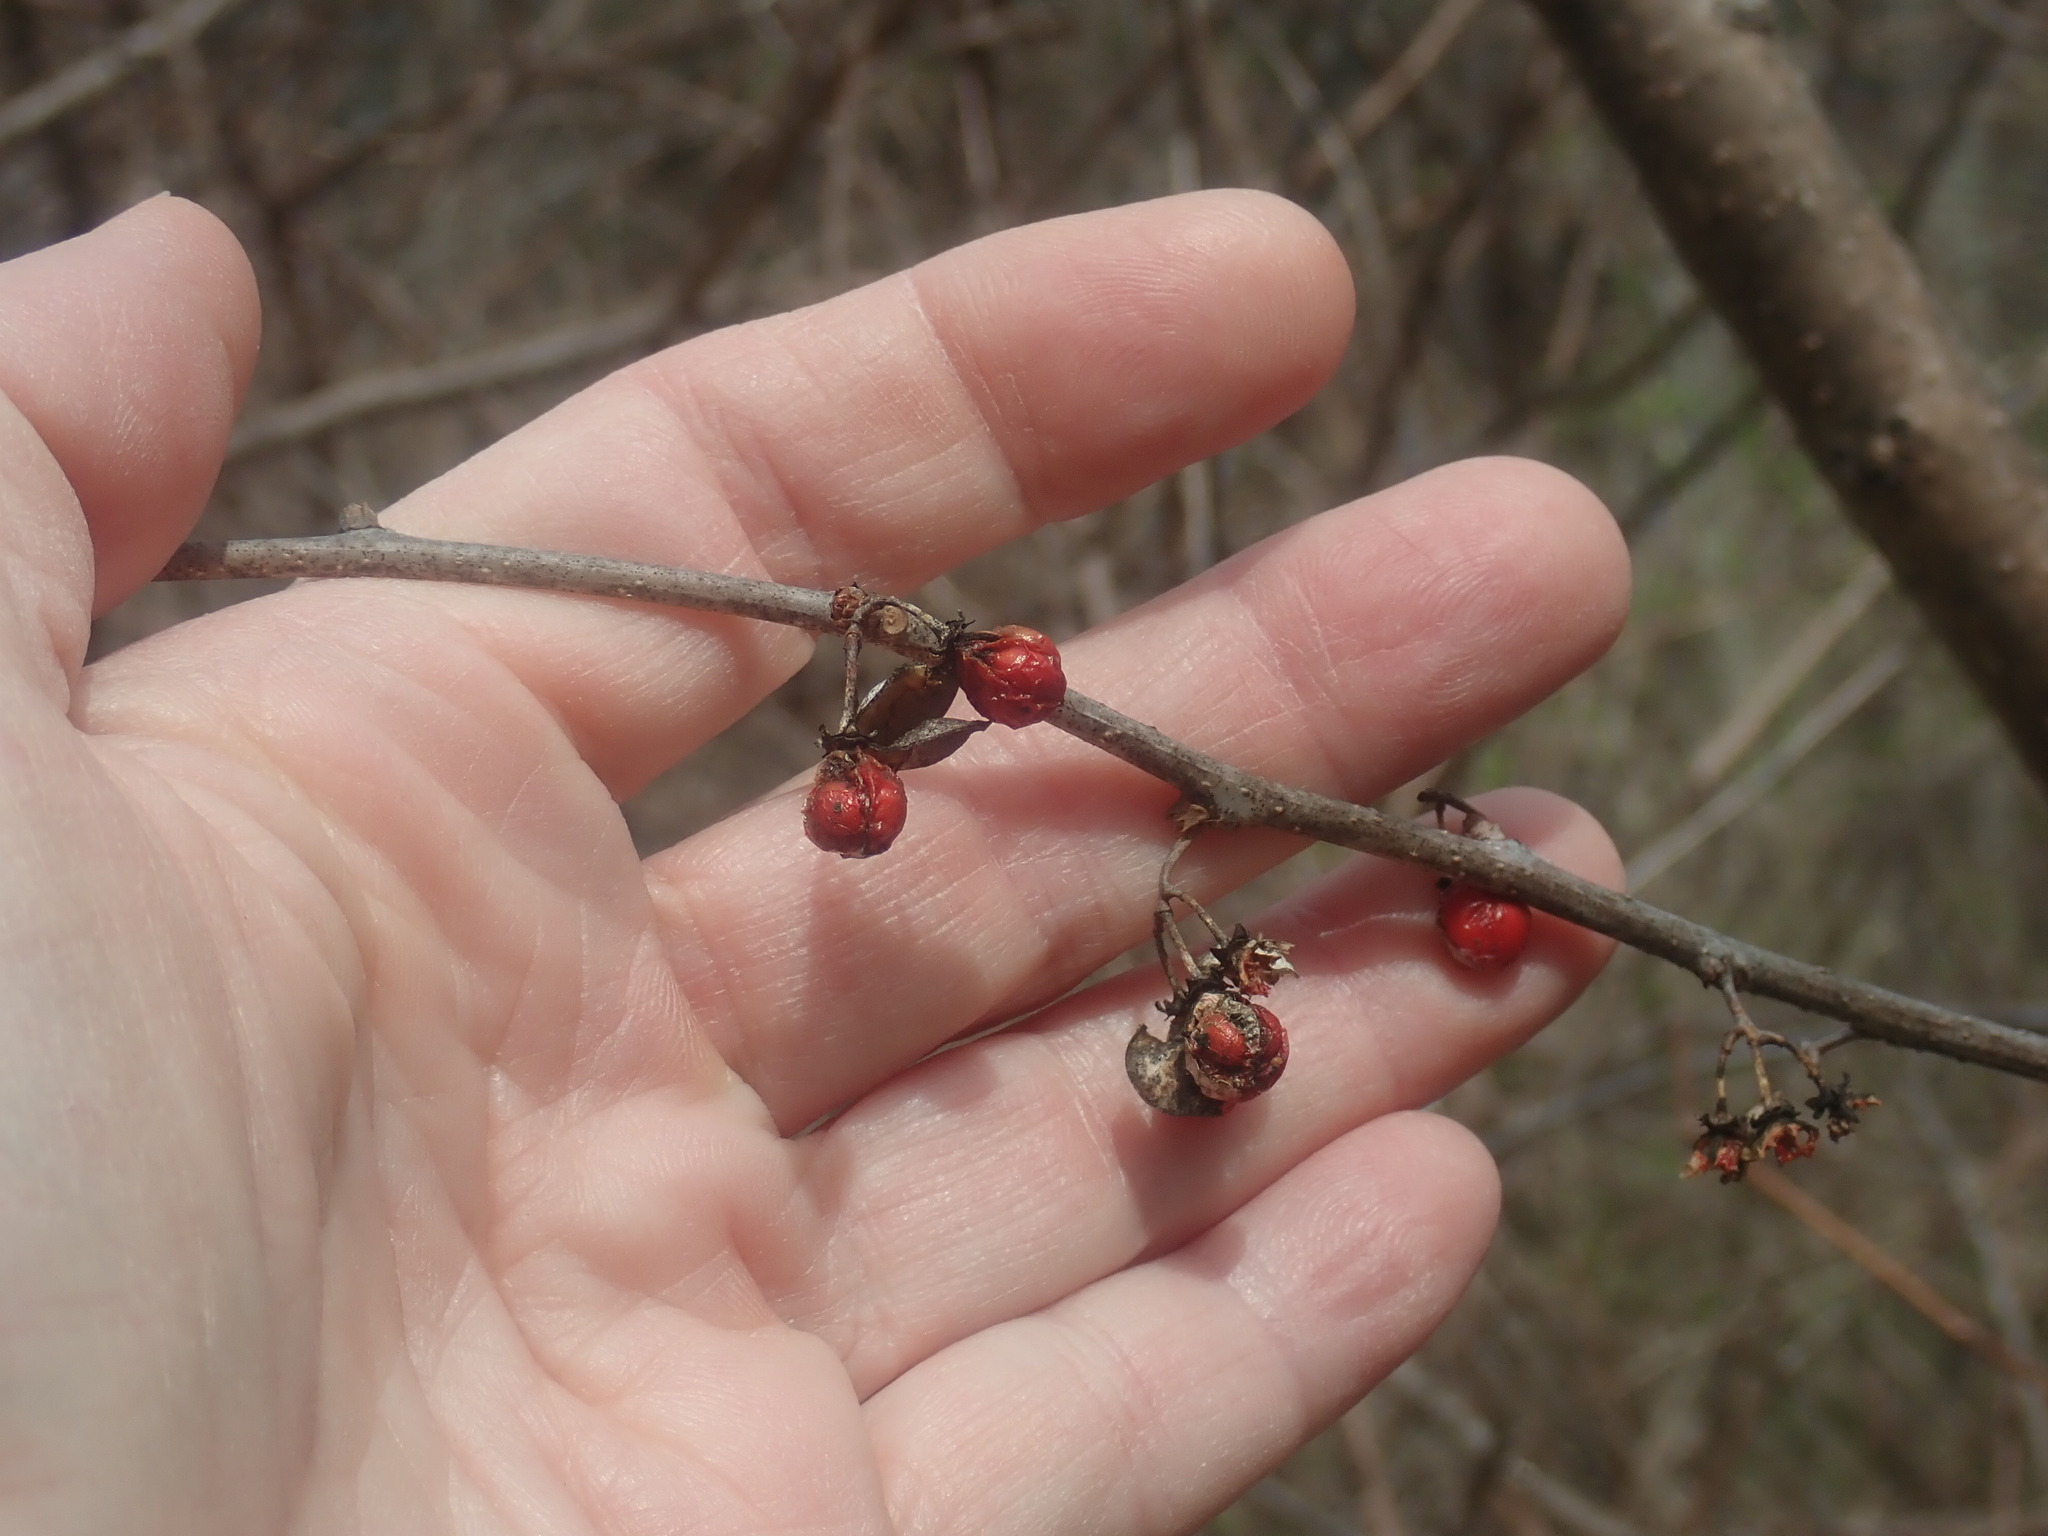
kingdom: Plantae
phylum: Tracheophyta
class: Magnoliopsida
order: Celastrales
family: Celastraceae
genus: Celastrus
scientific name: Celastrus orbiculatus
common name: Oriental bittersweet
